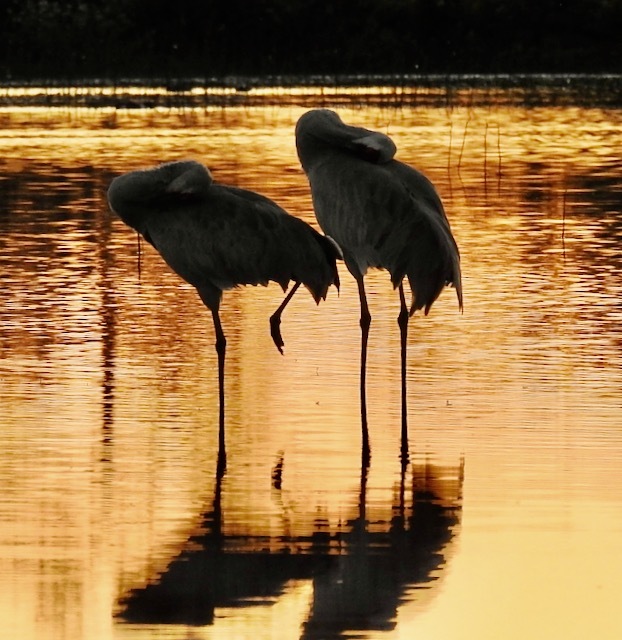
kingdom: Animalia
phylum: Chordata
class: Aves
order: Gruiformes
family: Gruidae
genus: Grus
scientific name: Grus canadensis
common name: Sandhill crane
